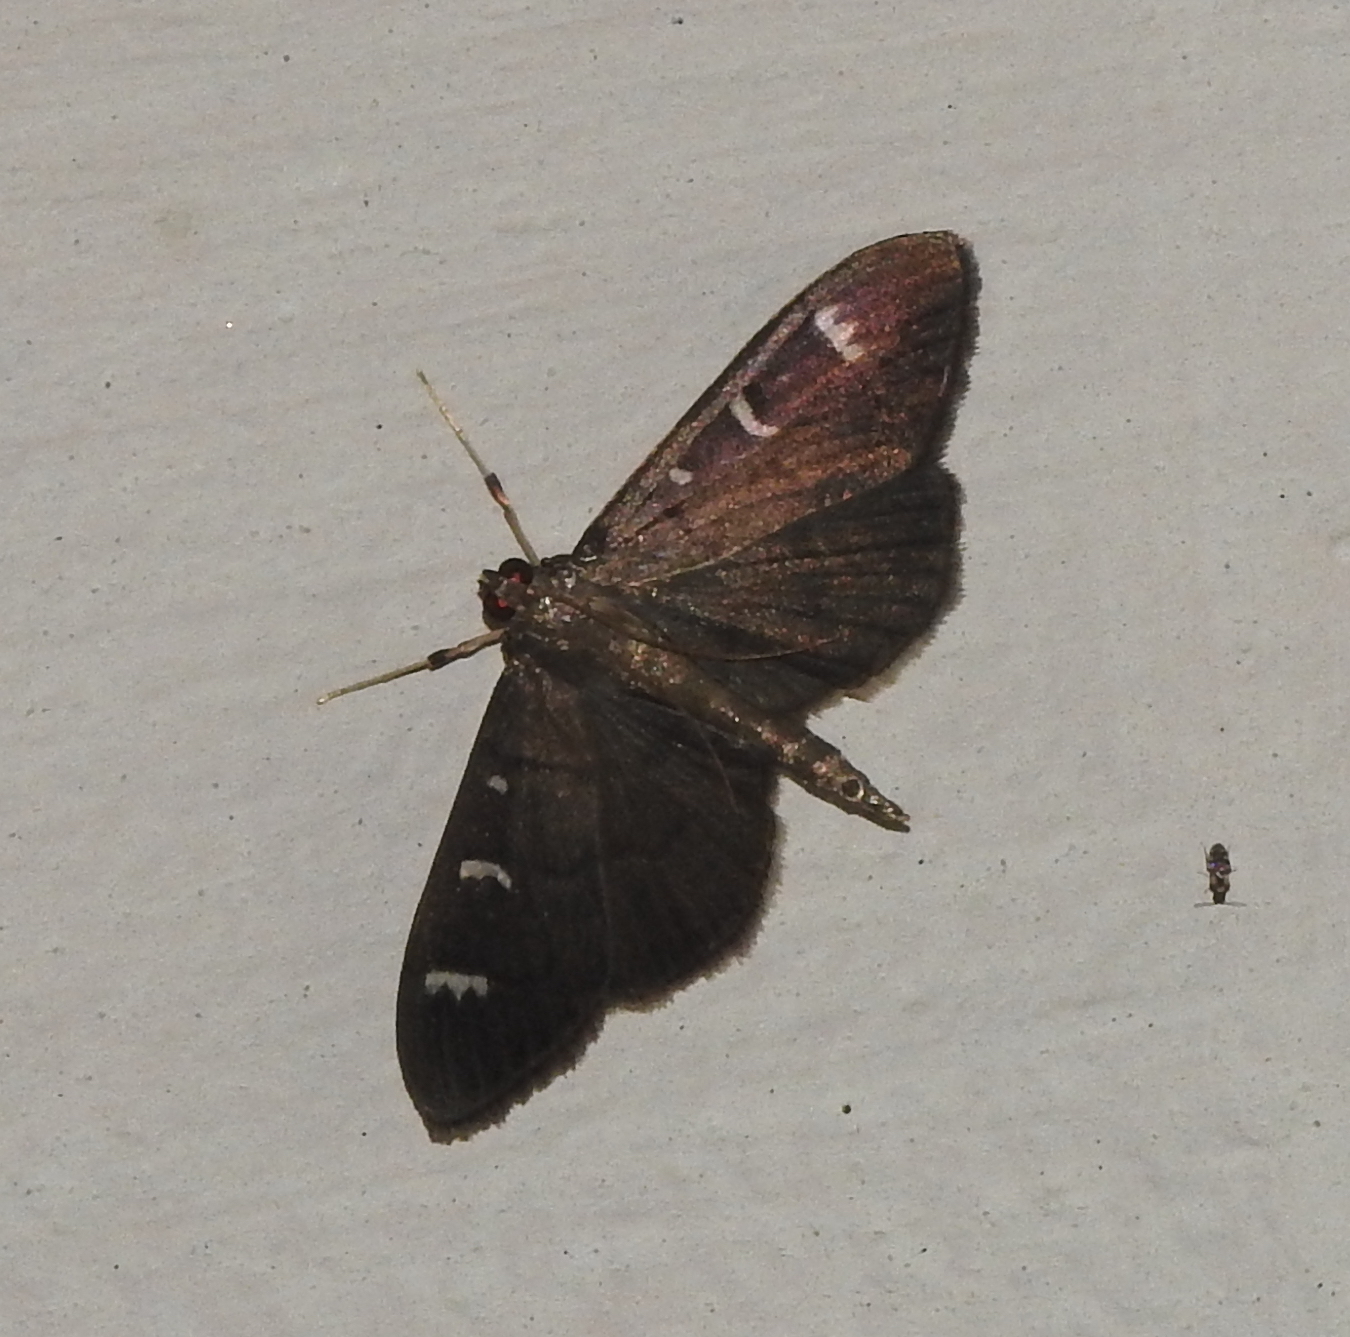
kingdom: Animalia
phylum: Arthropoda
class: Insecta
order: Lepidoptera
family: Crambidae
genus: Syllepte
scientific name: Syllepte adductalis
